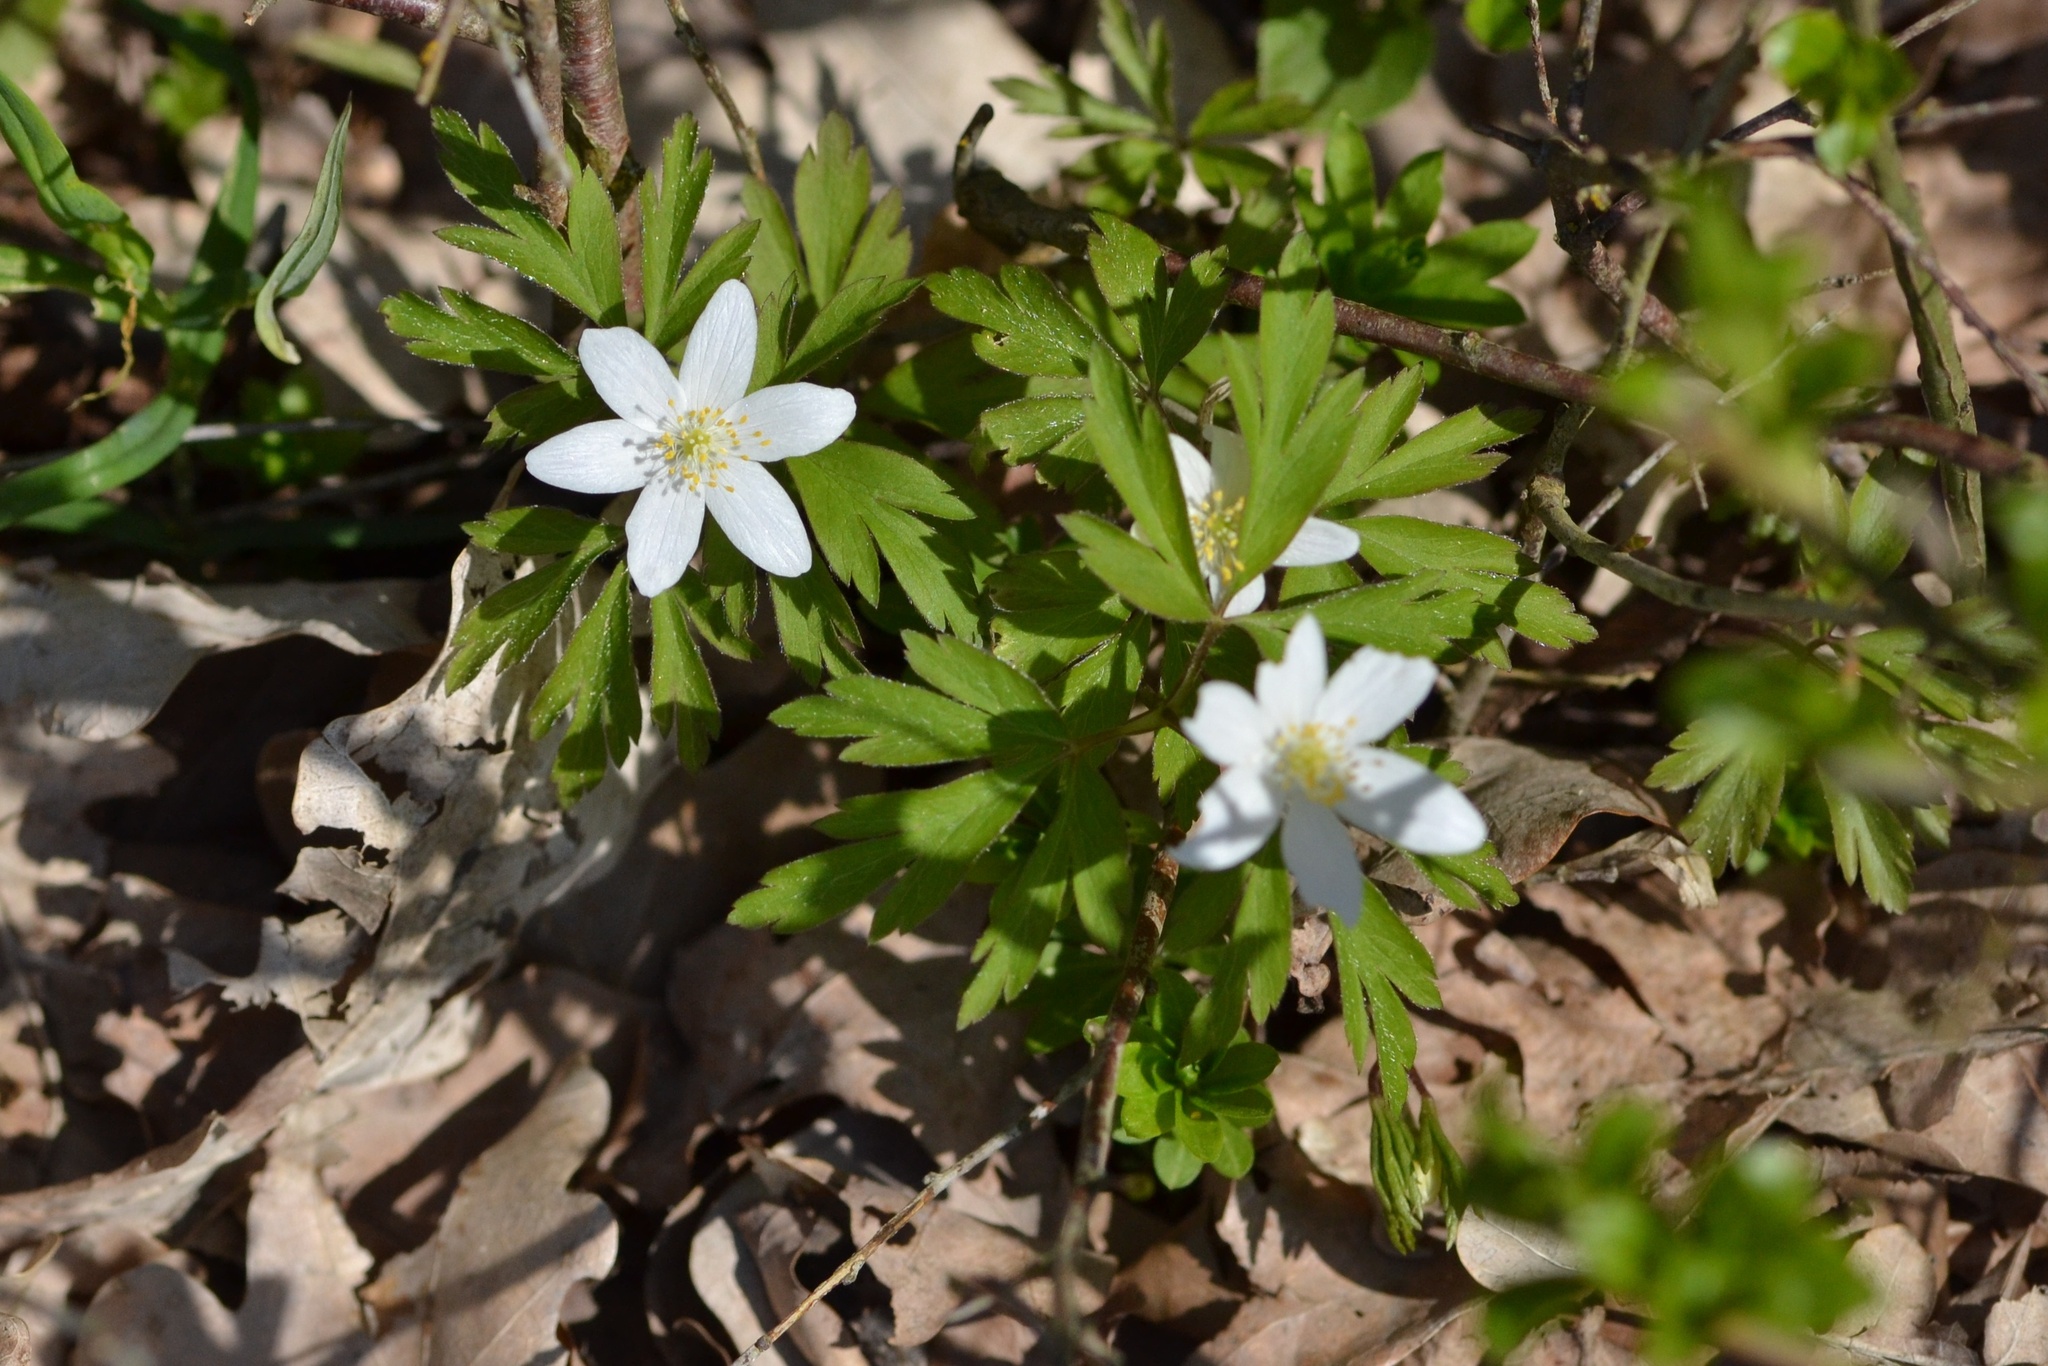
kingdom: Plantae
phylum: Tracheophyta
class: Magnoliopsida
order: Ranunculales
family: Ranunculaceae
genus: Anemone
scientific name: Anemone nemorosa
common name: Wood anemone
